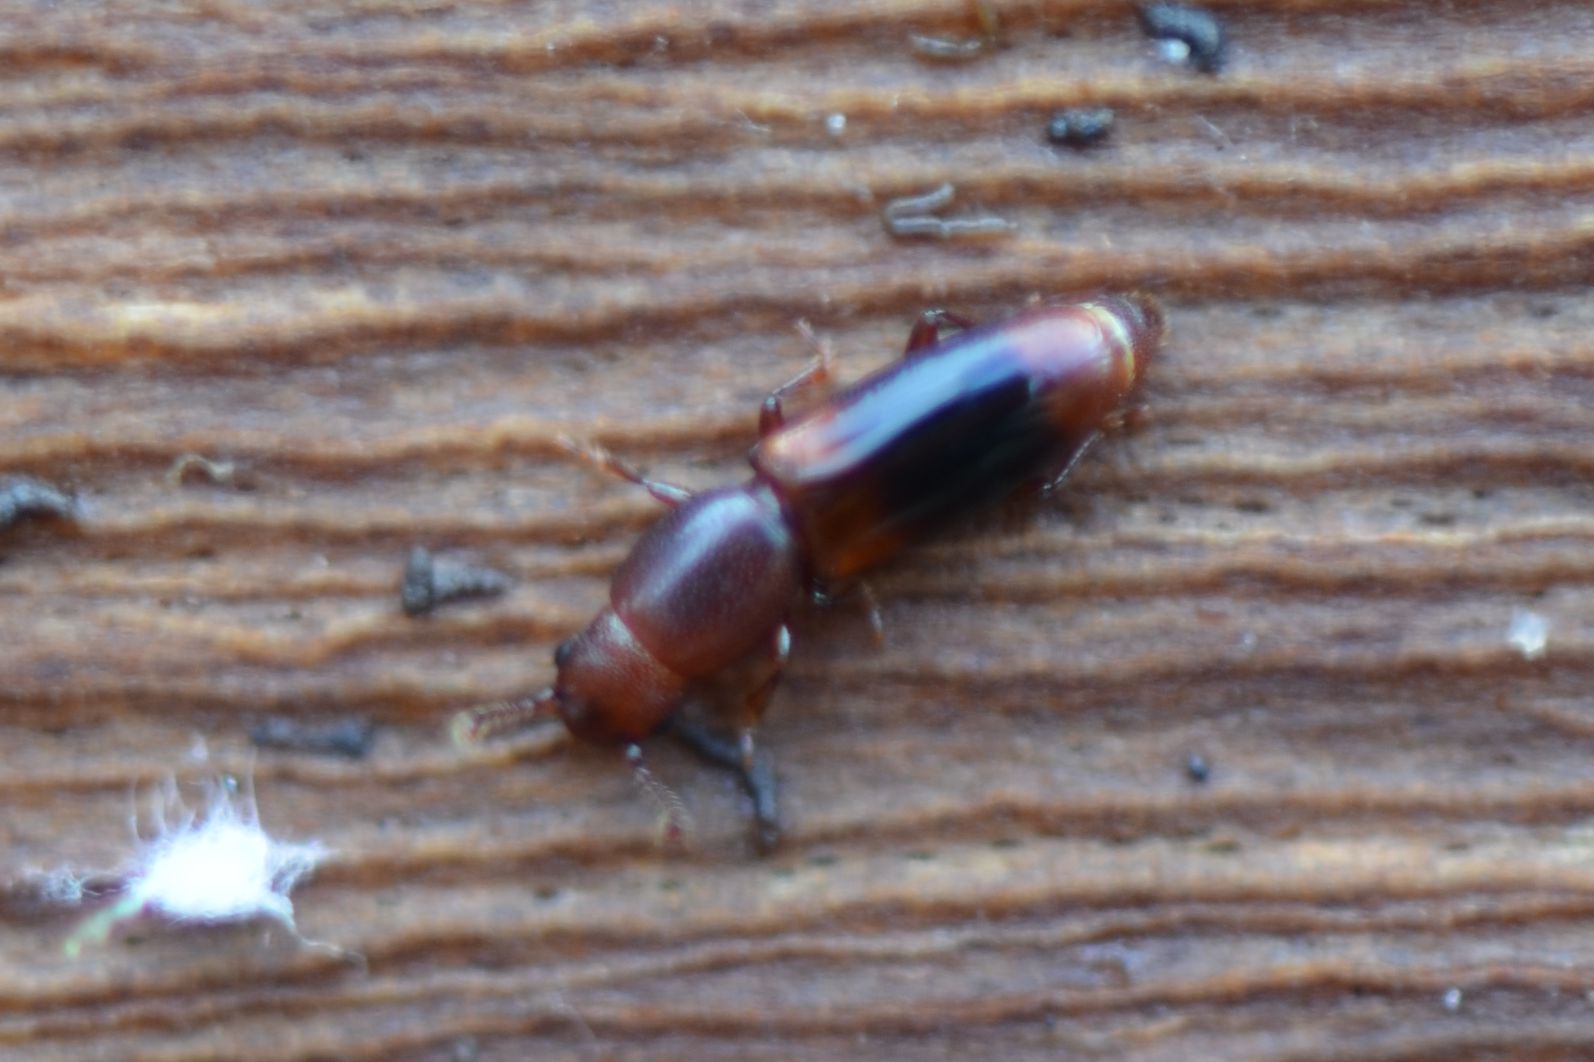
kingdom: Animalia
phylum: Arthropoda
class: Insecta
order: Coleoptera
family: Monotomidae
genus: Rhizophagus
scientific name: Rhizophagus dispar
